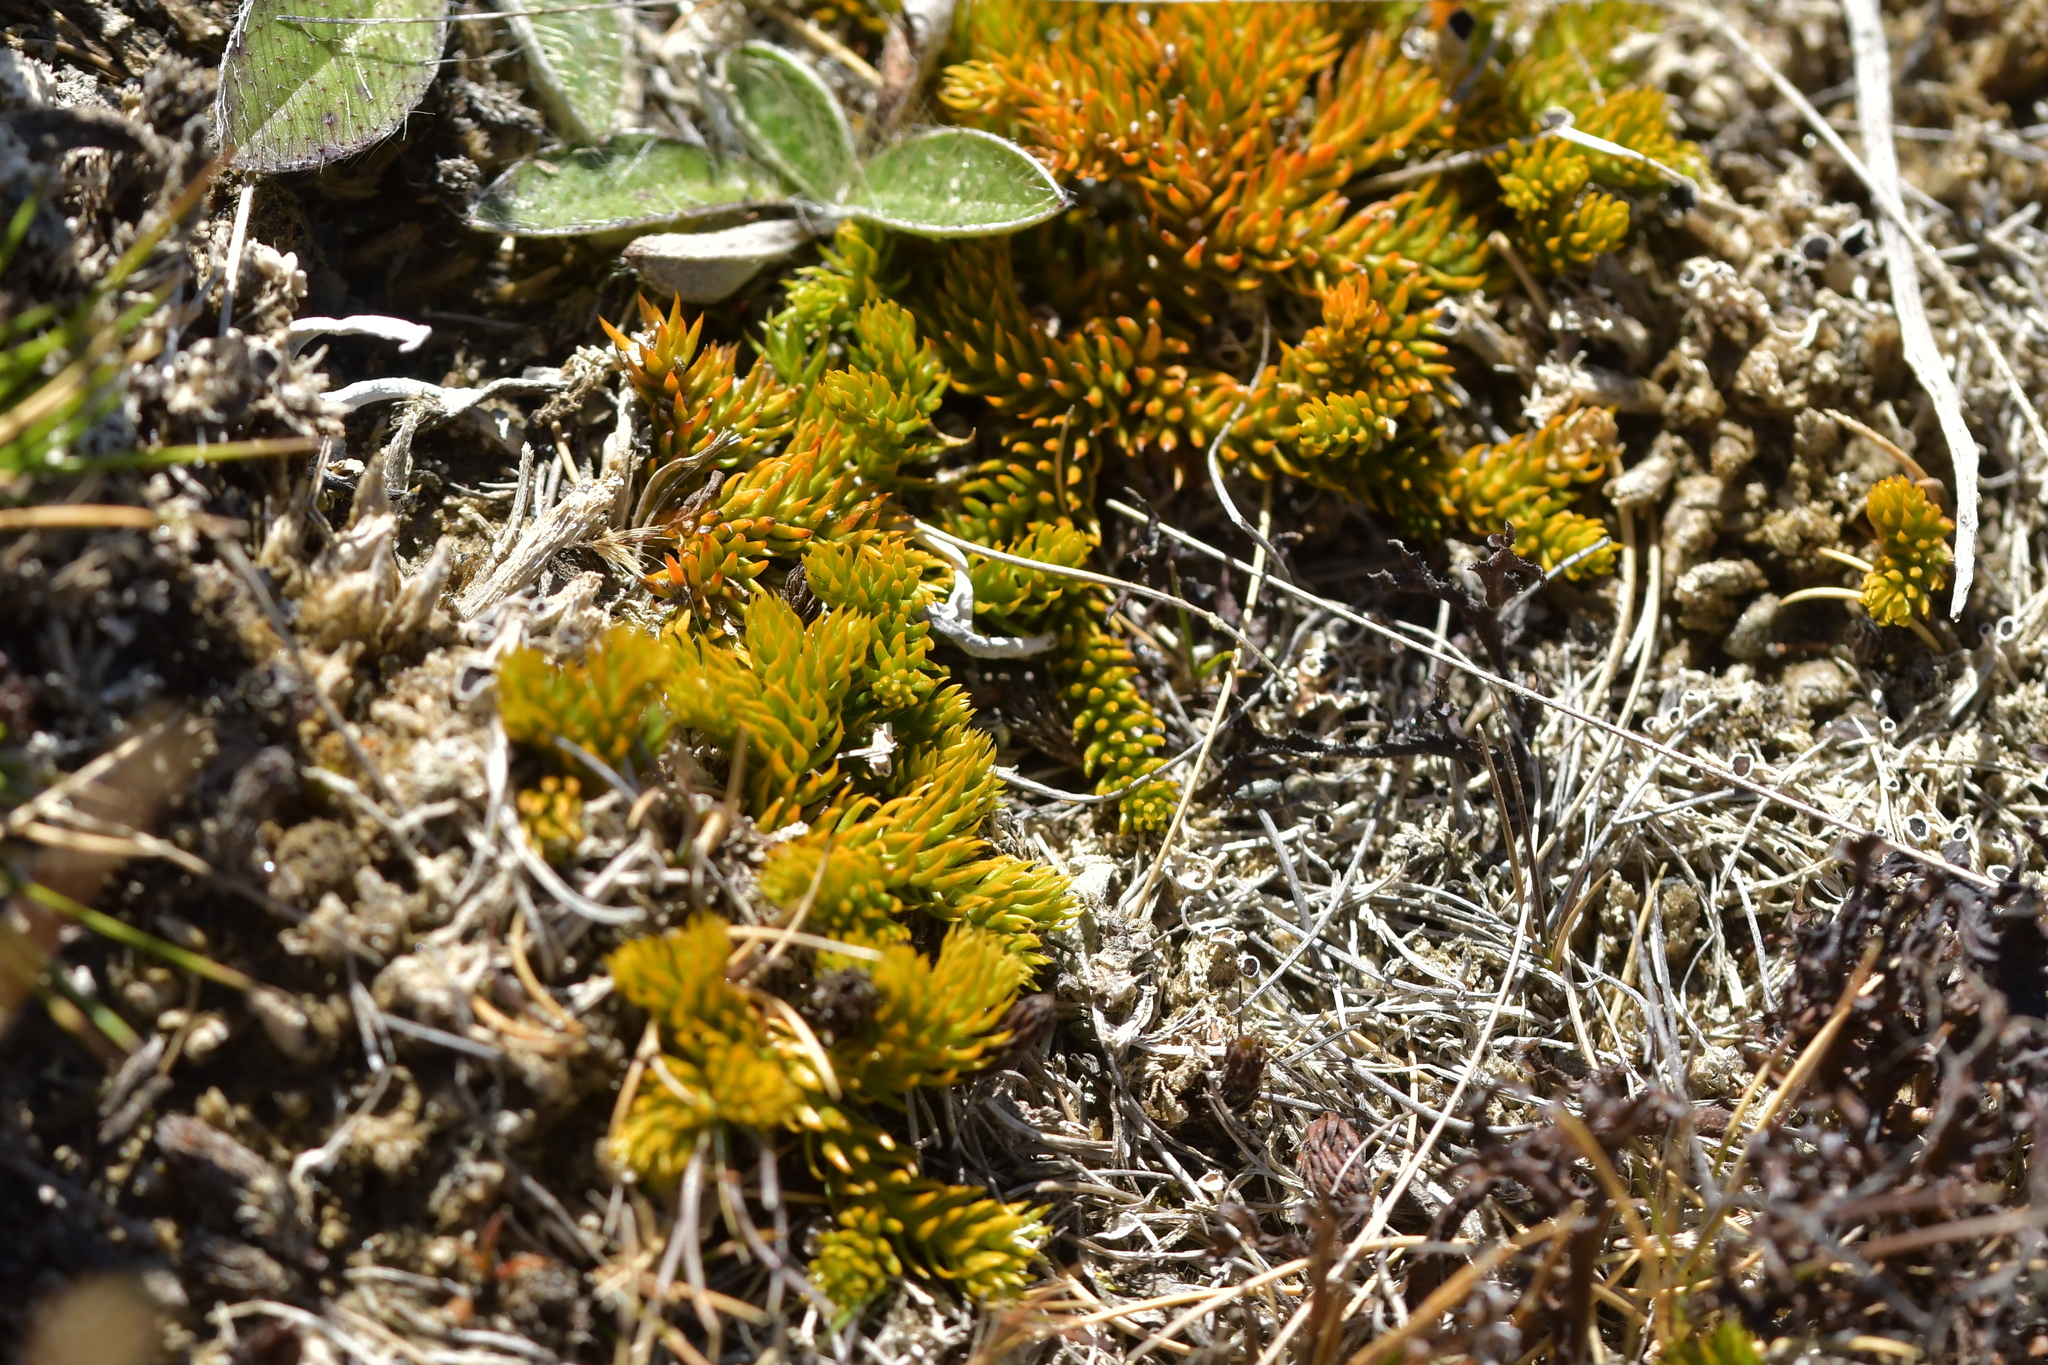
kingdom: Plantae
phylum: Tracheophyta
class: Lycopodiopsida
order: Lycopodiales
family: Lycopodiaceae
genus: Austrolycopodium
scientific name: Austrolycopodium fastigiatum
